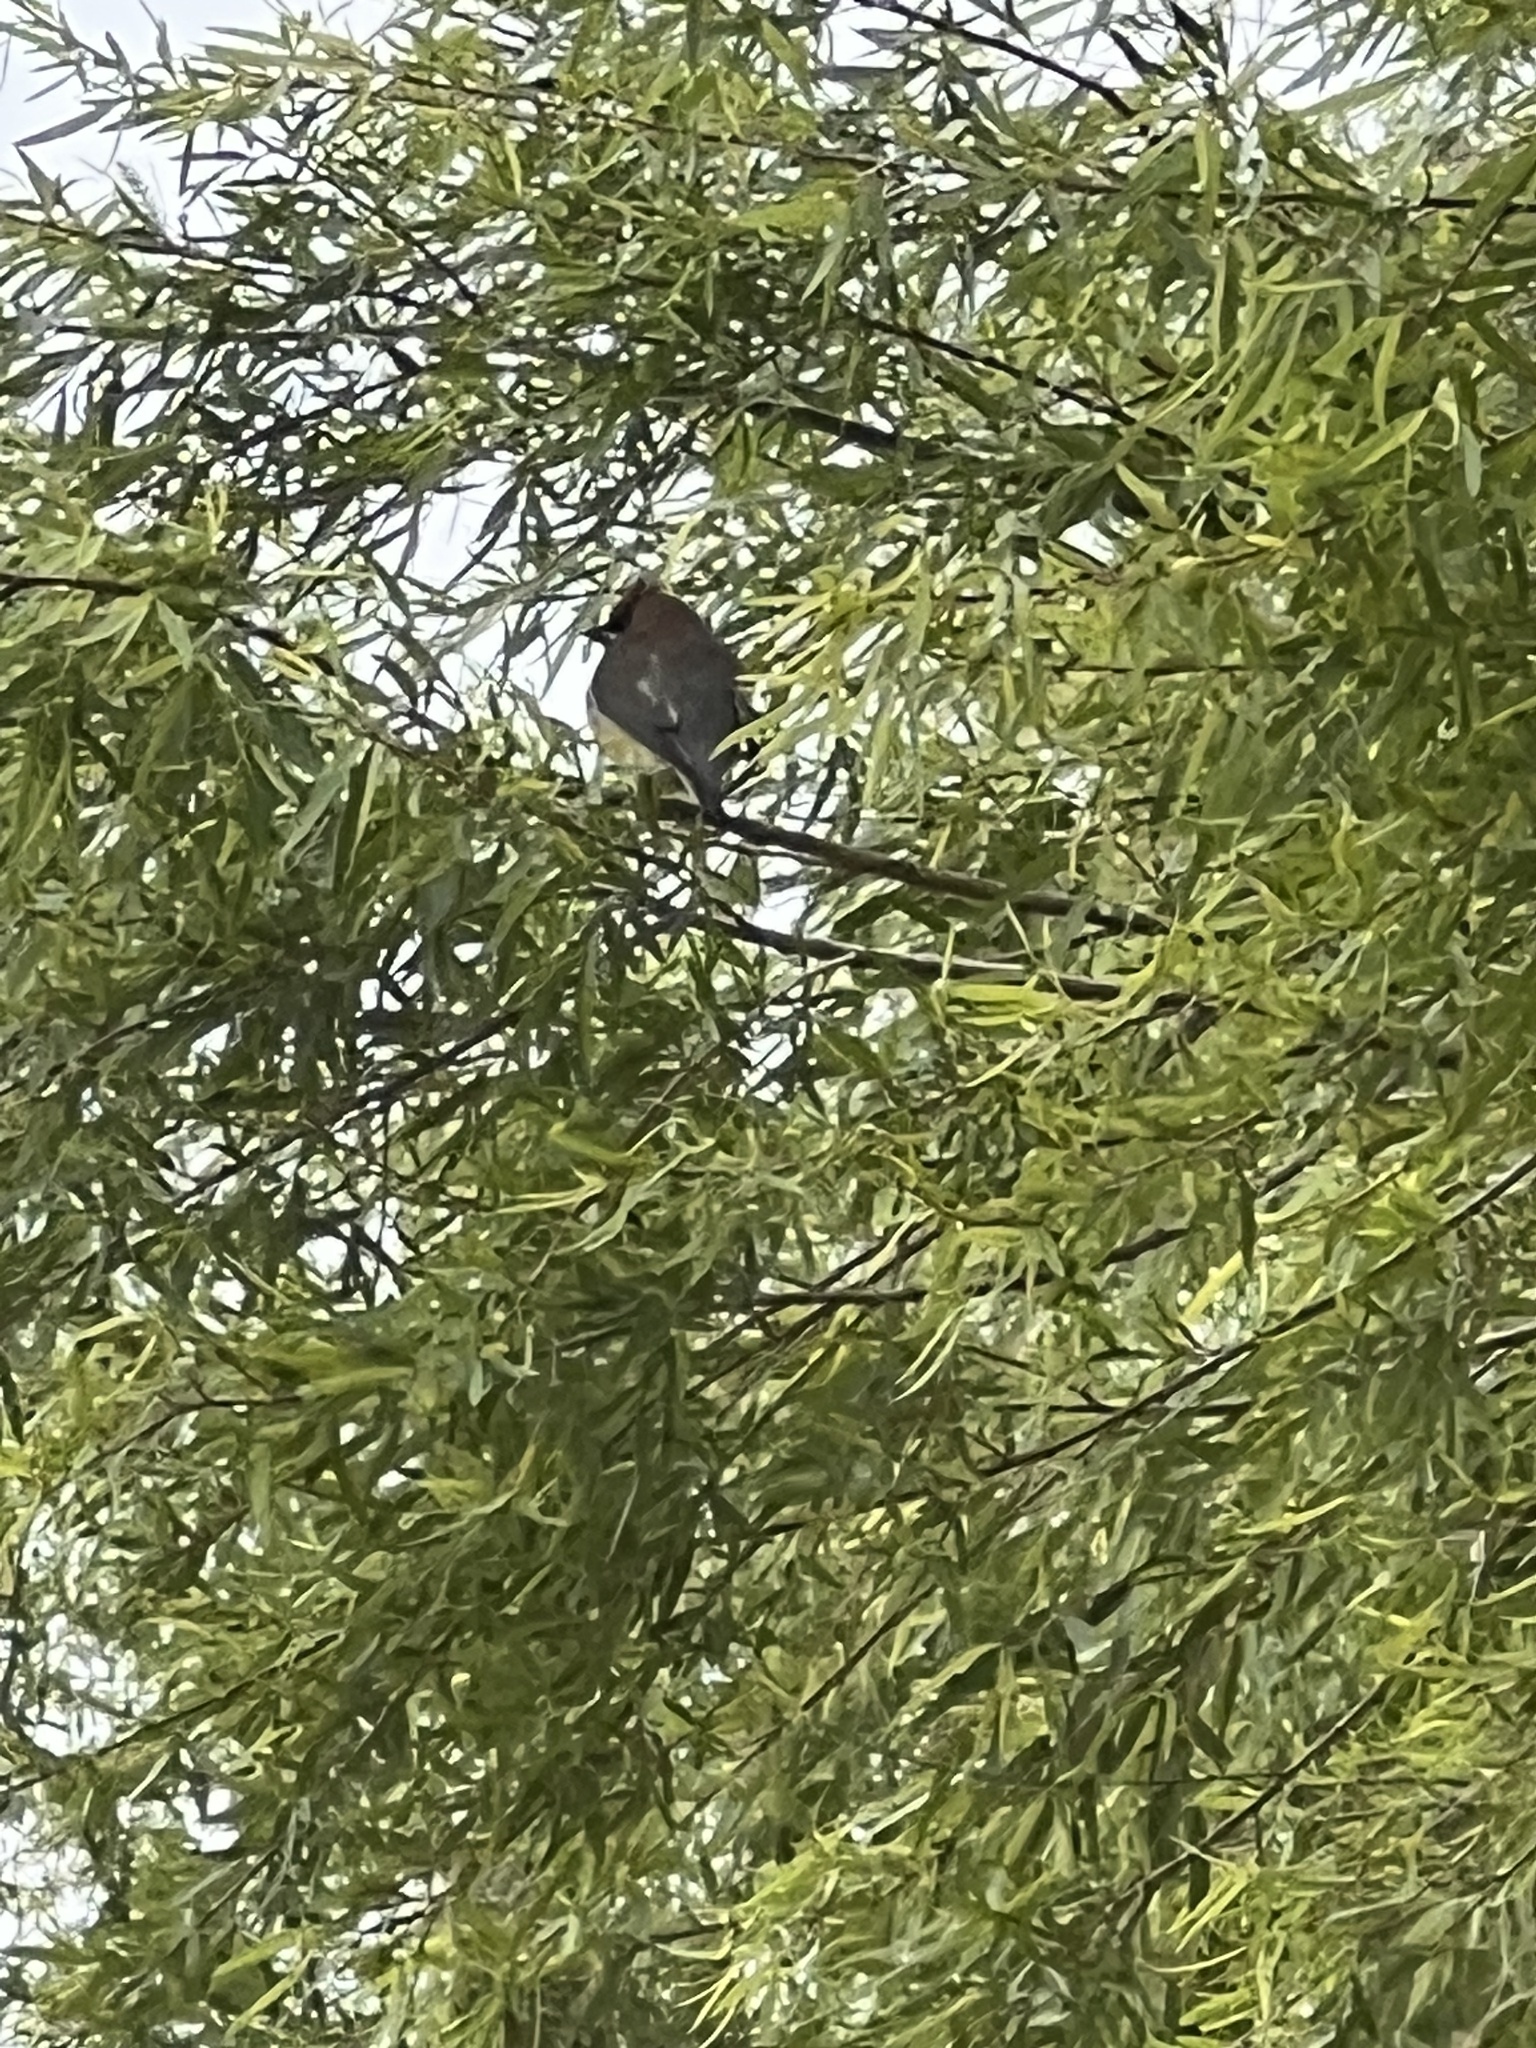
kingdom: Animalia
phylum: Chordata
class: Aves
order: Passeriformes
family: Bombycillidae
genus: Bombycilla
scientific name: Bombycilla cedrorum
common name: Cedar waxwing
